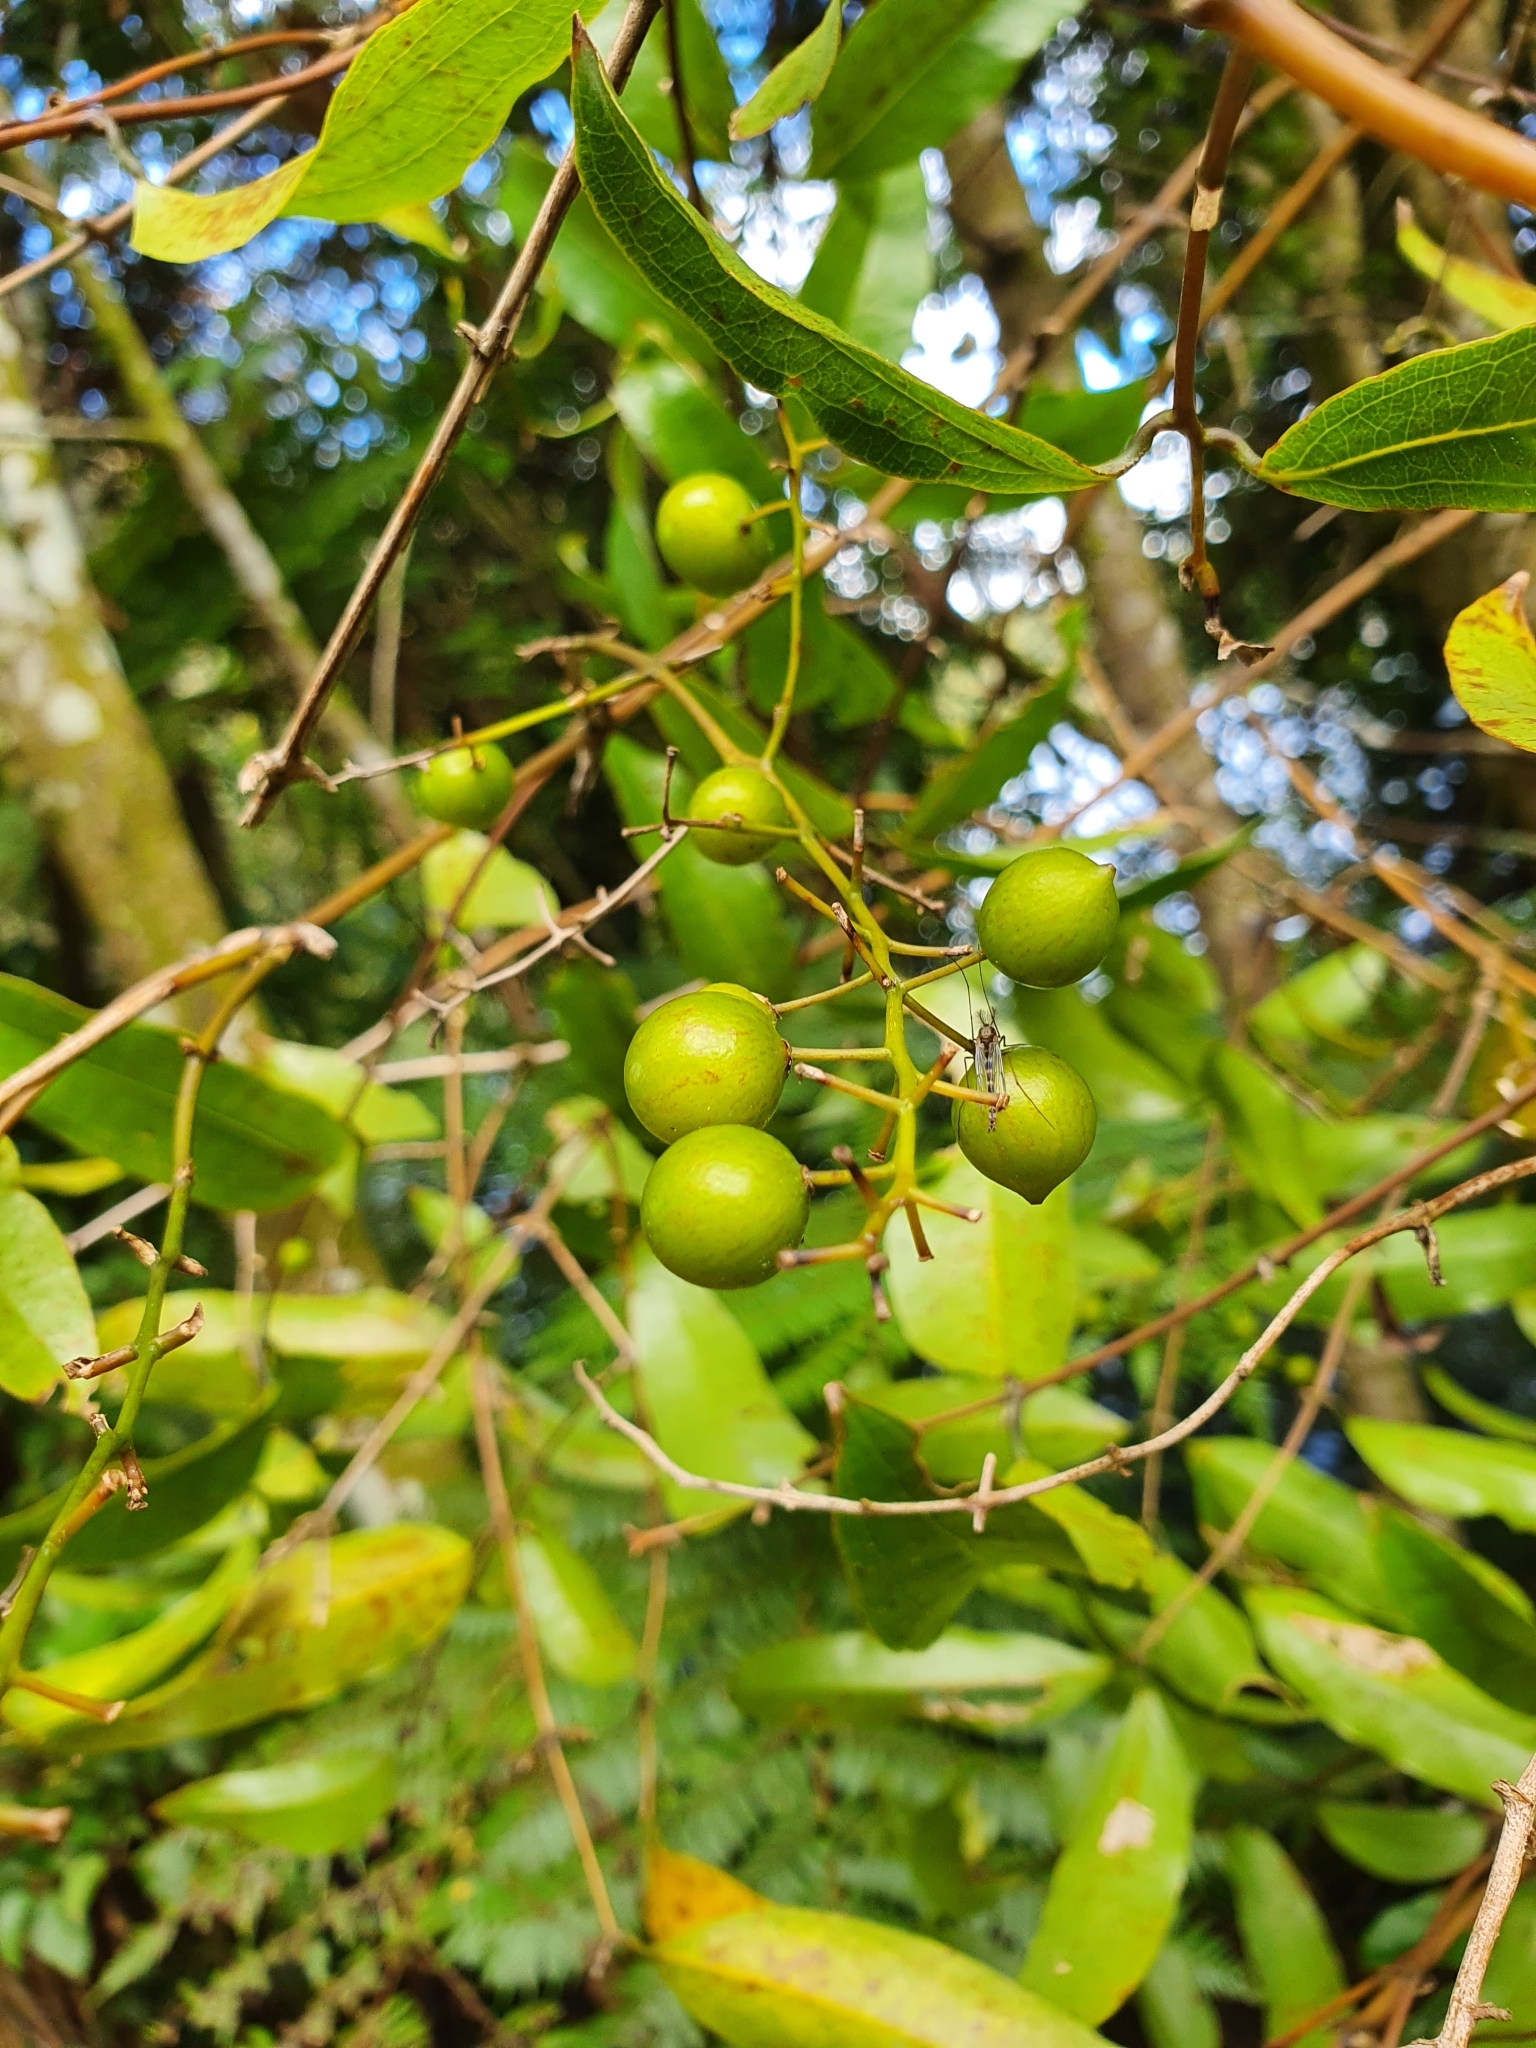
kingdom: Plantae
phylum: Tracheophyta
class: Liliopsida
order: Liliales
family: Ripogonaceae
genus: Ripogonum
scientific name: Ripogonum scandens
